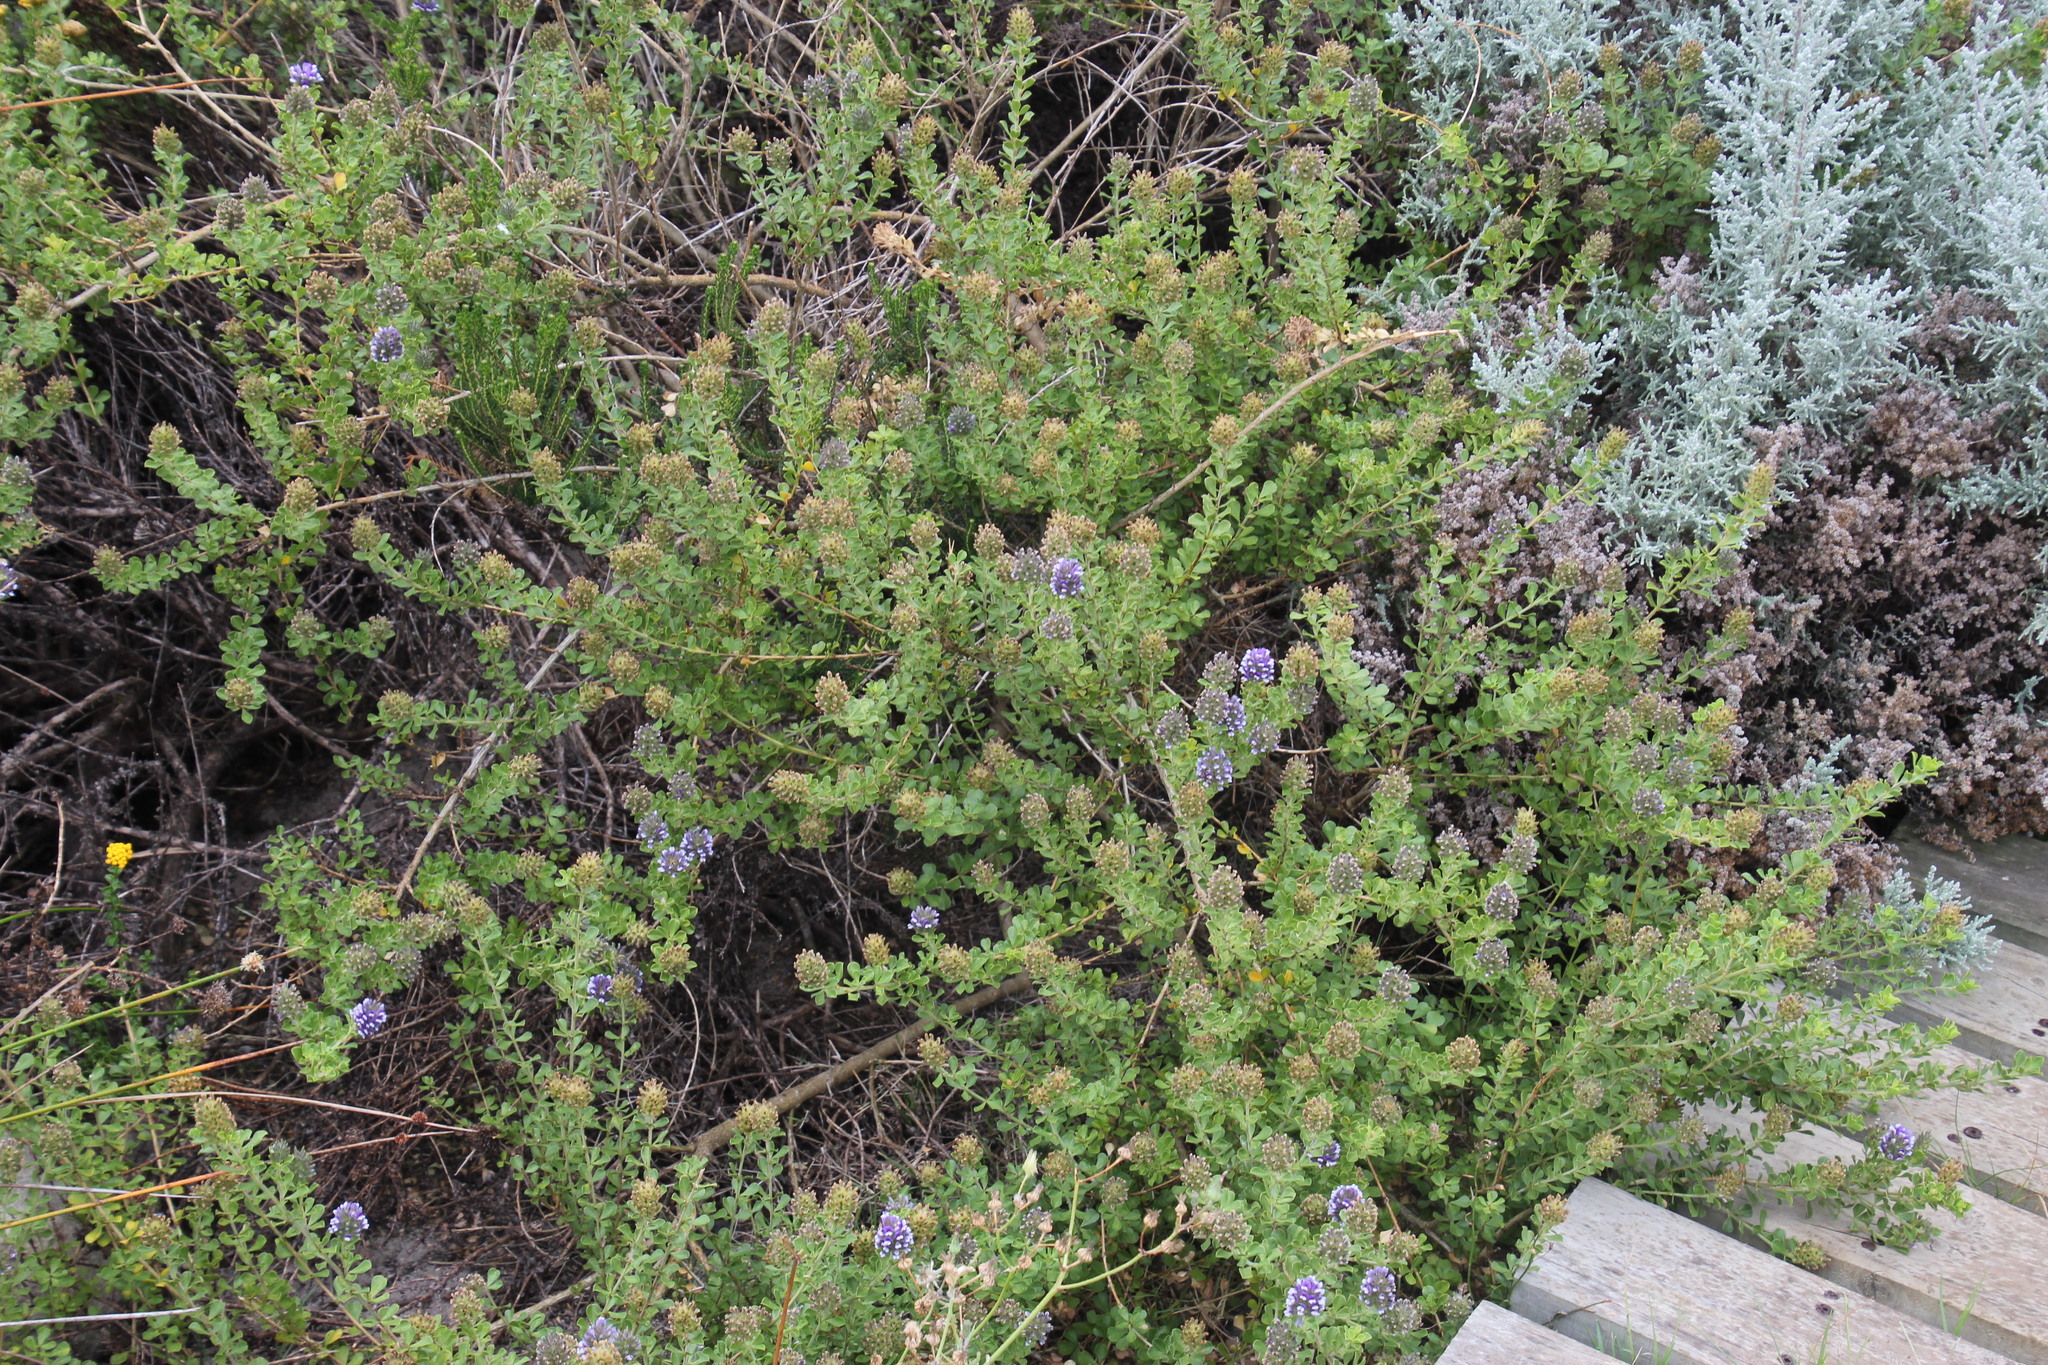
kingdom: Plantae
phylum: Tracheophyta
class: Magnoliopsida
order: Fabales
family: Fabaceae
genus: Psoralea
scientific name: Psoralea fruticans
